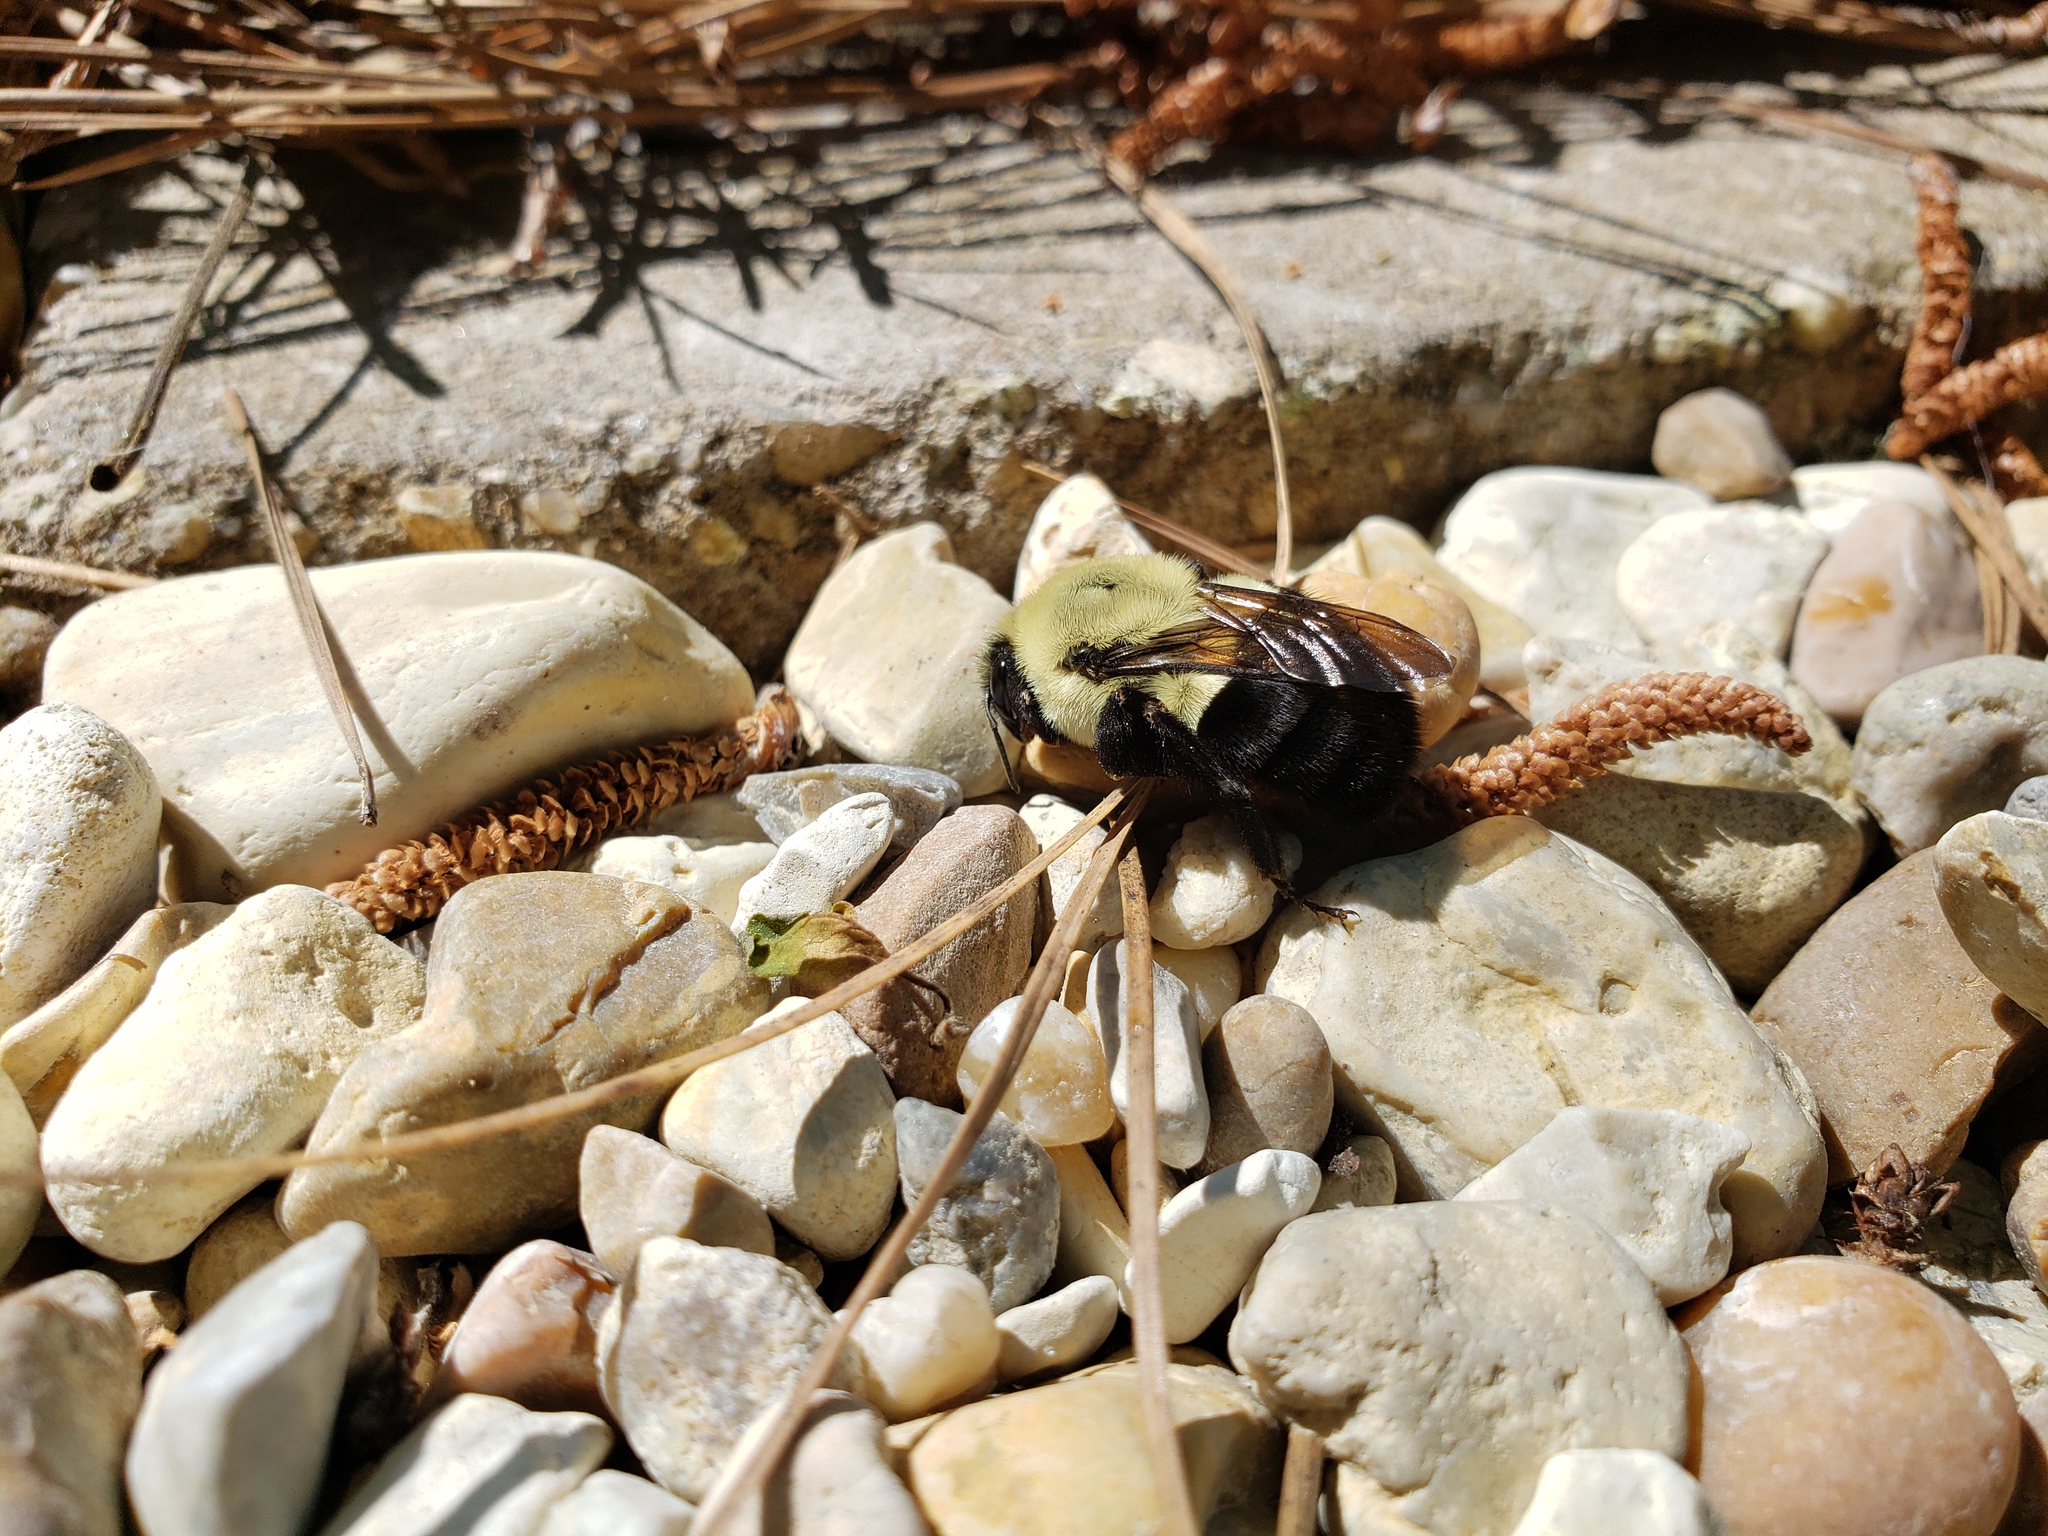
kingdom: Animalia
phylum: Arthropoda
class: Insecta
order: Hymenoptera
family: Apidae
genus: Bombus
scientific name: Bombus impatiens
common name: Common eastern bumble bee
